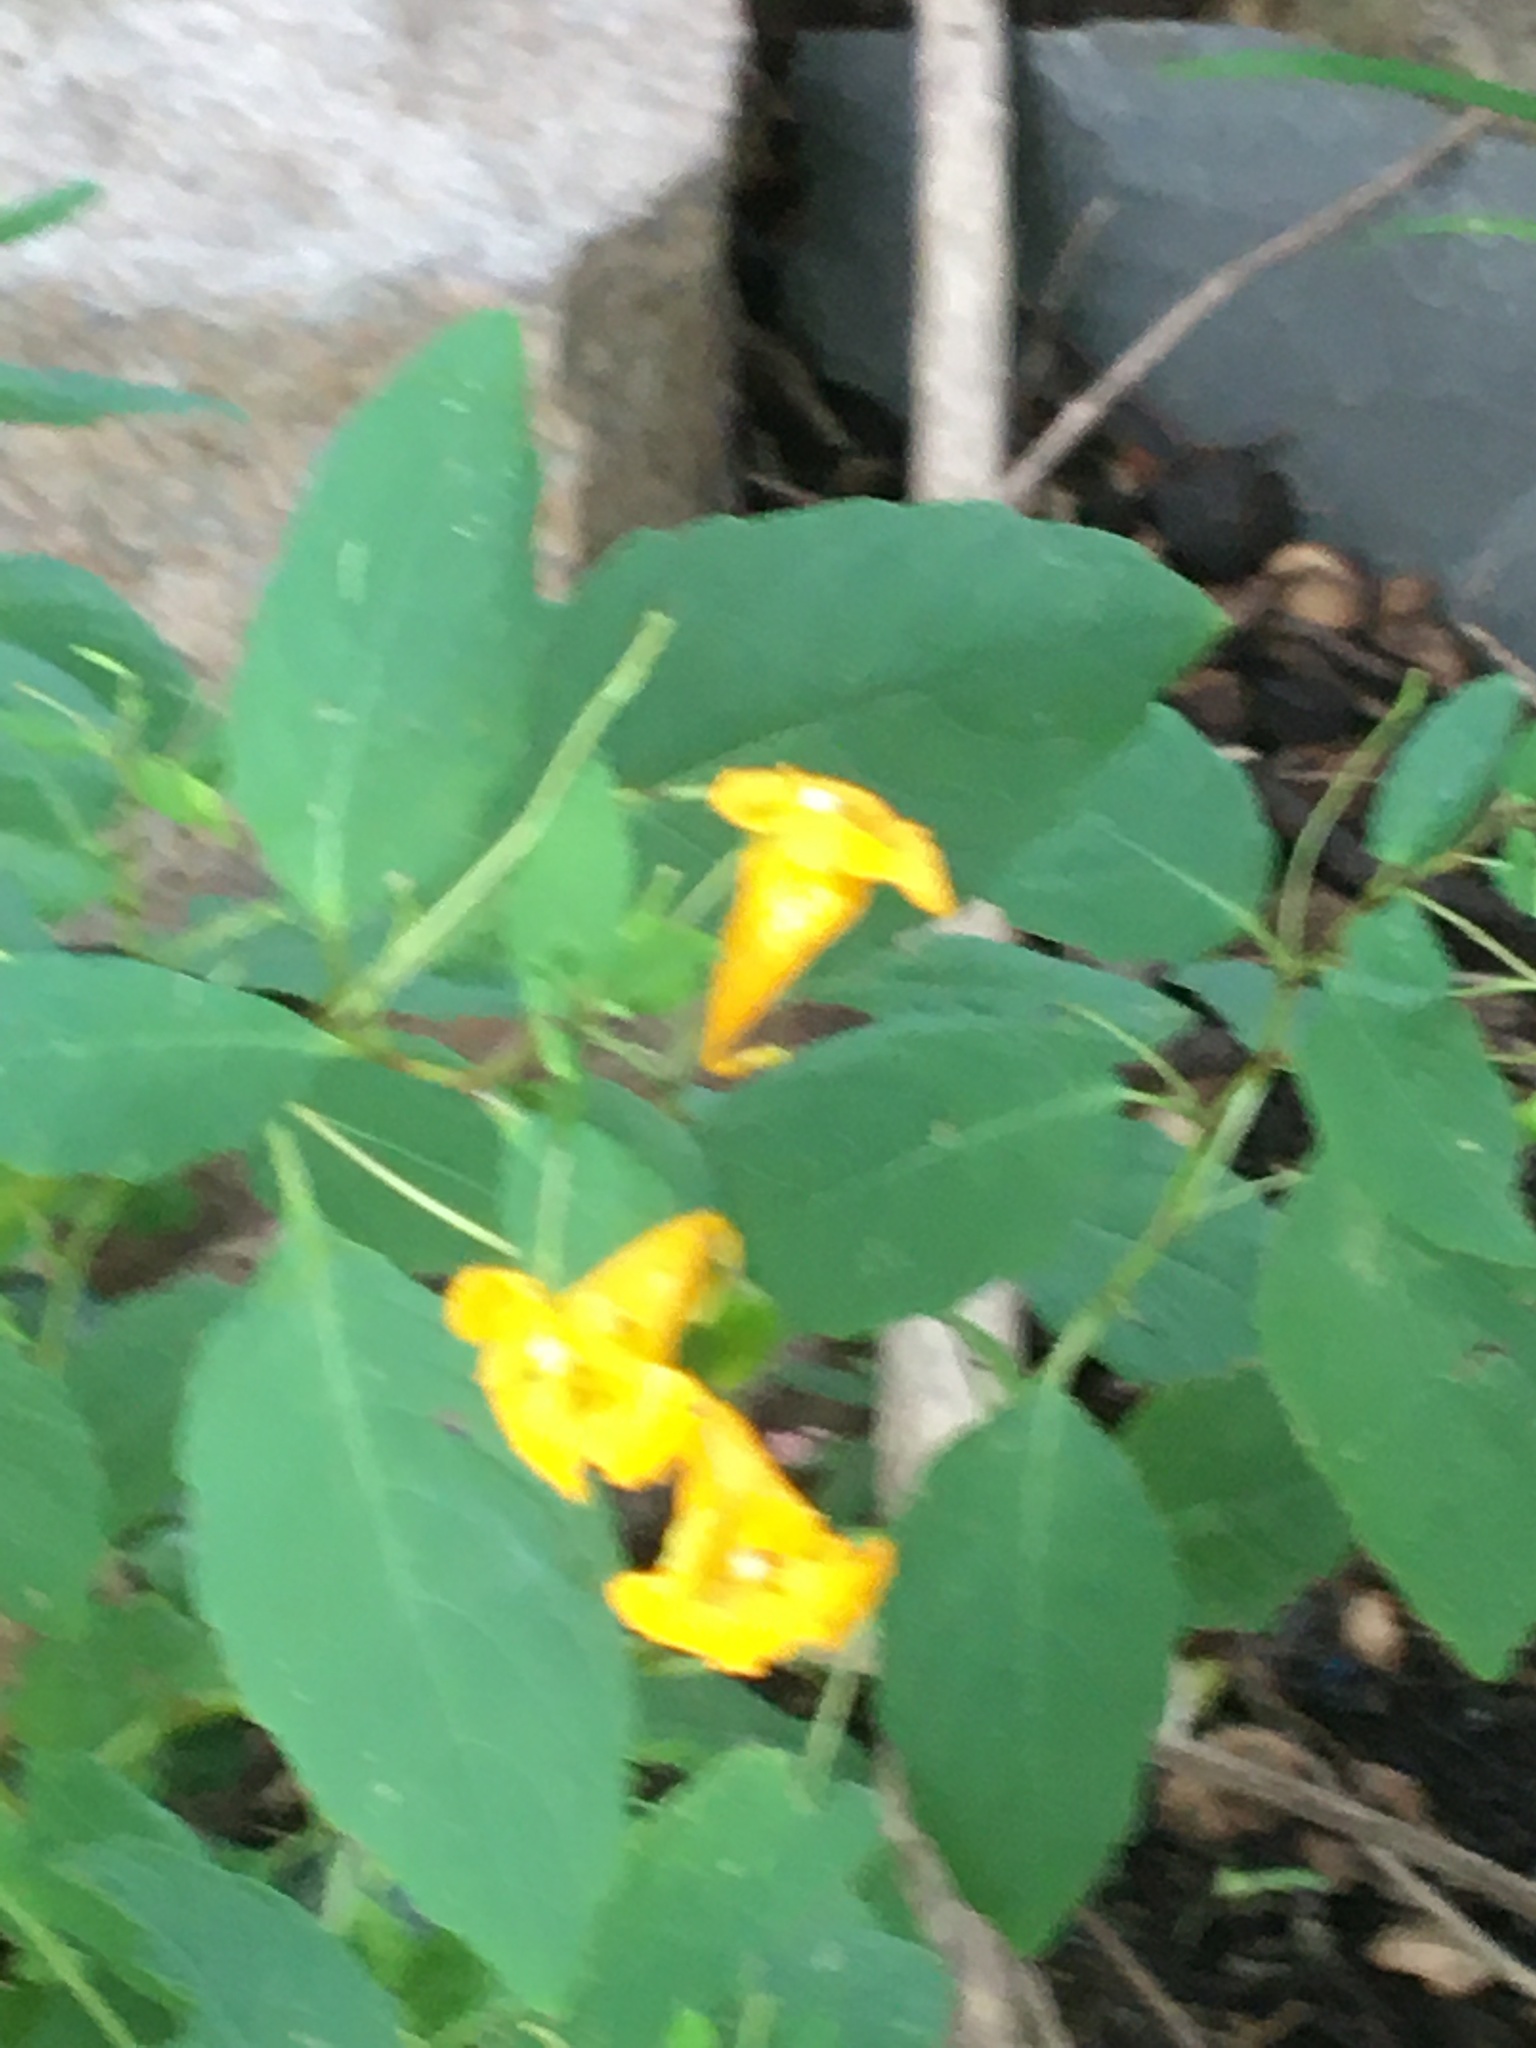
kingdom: Plantae
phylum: Tracheophyta
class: Magnoliopsida
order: Ericales
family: Balsaminaceae
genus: Impatiens
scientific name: Impatiens capensis
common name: Orange balsam
